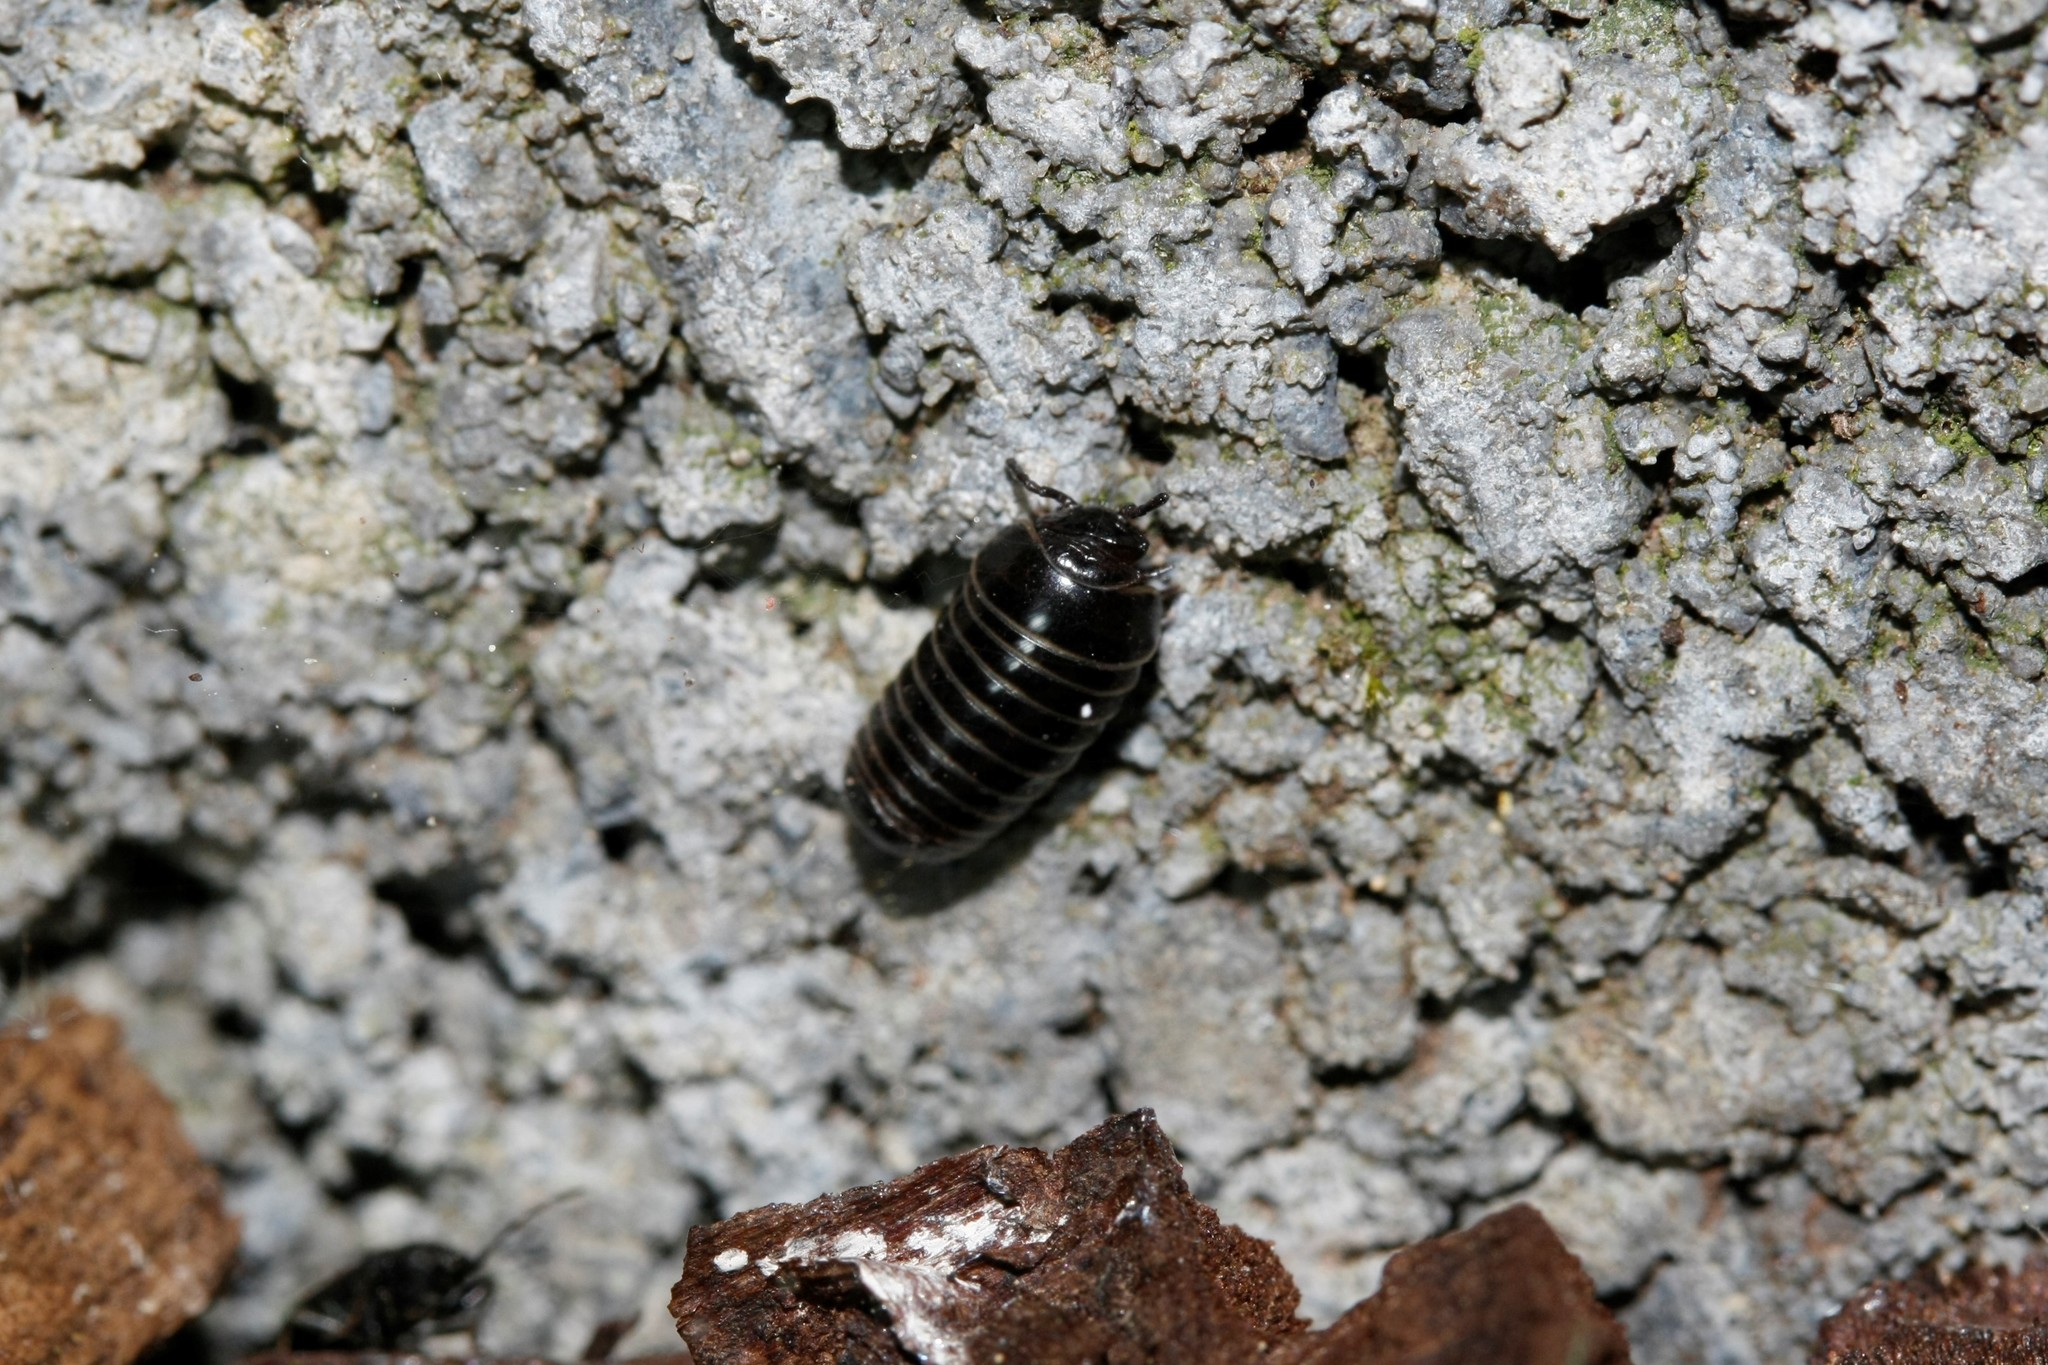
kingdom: Animalia
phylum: Arthropoda
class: Diplopoda
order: Glomerida
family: Glomeridae
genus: Glomeris
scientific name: Glomeris marginata
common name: Bordered pill millipede
